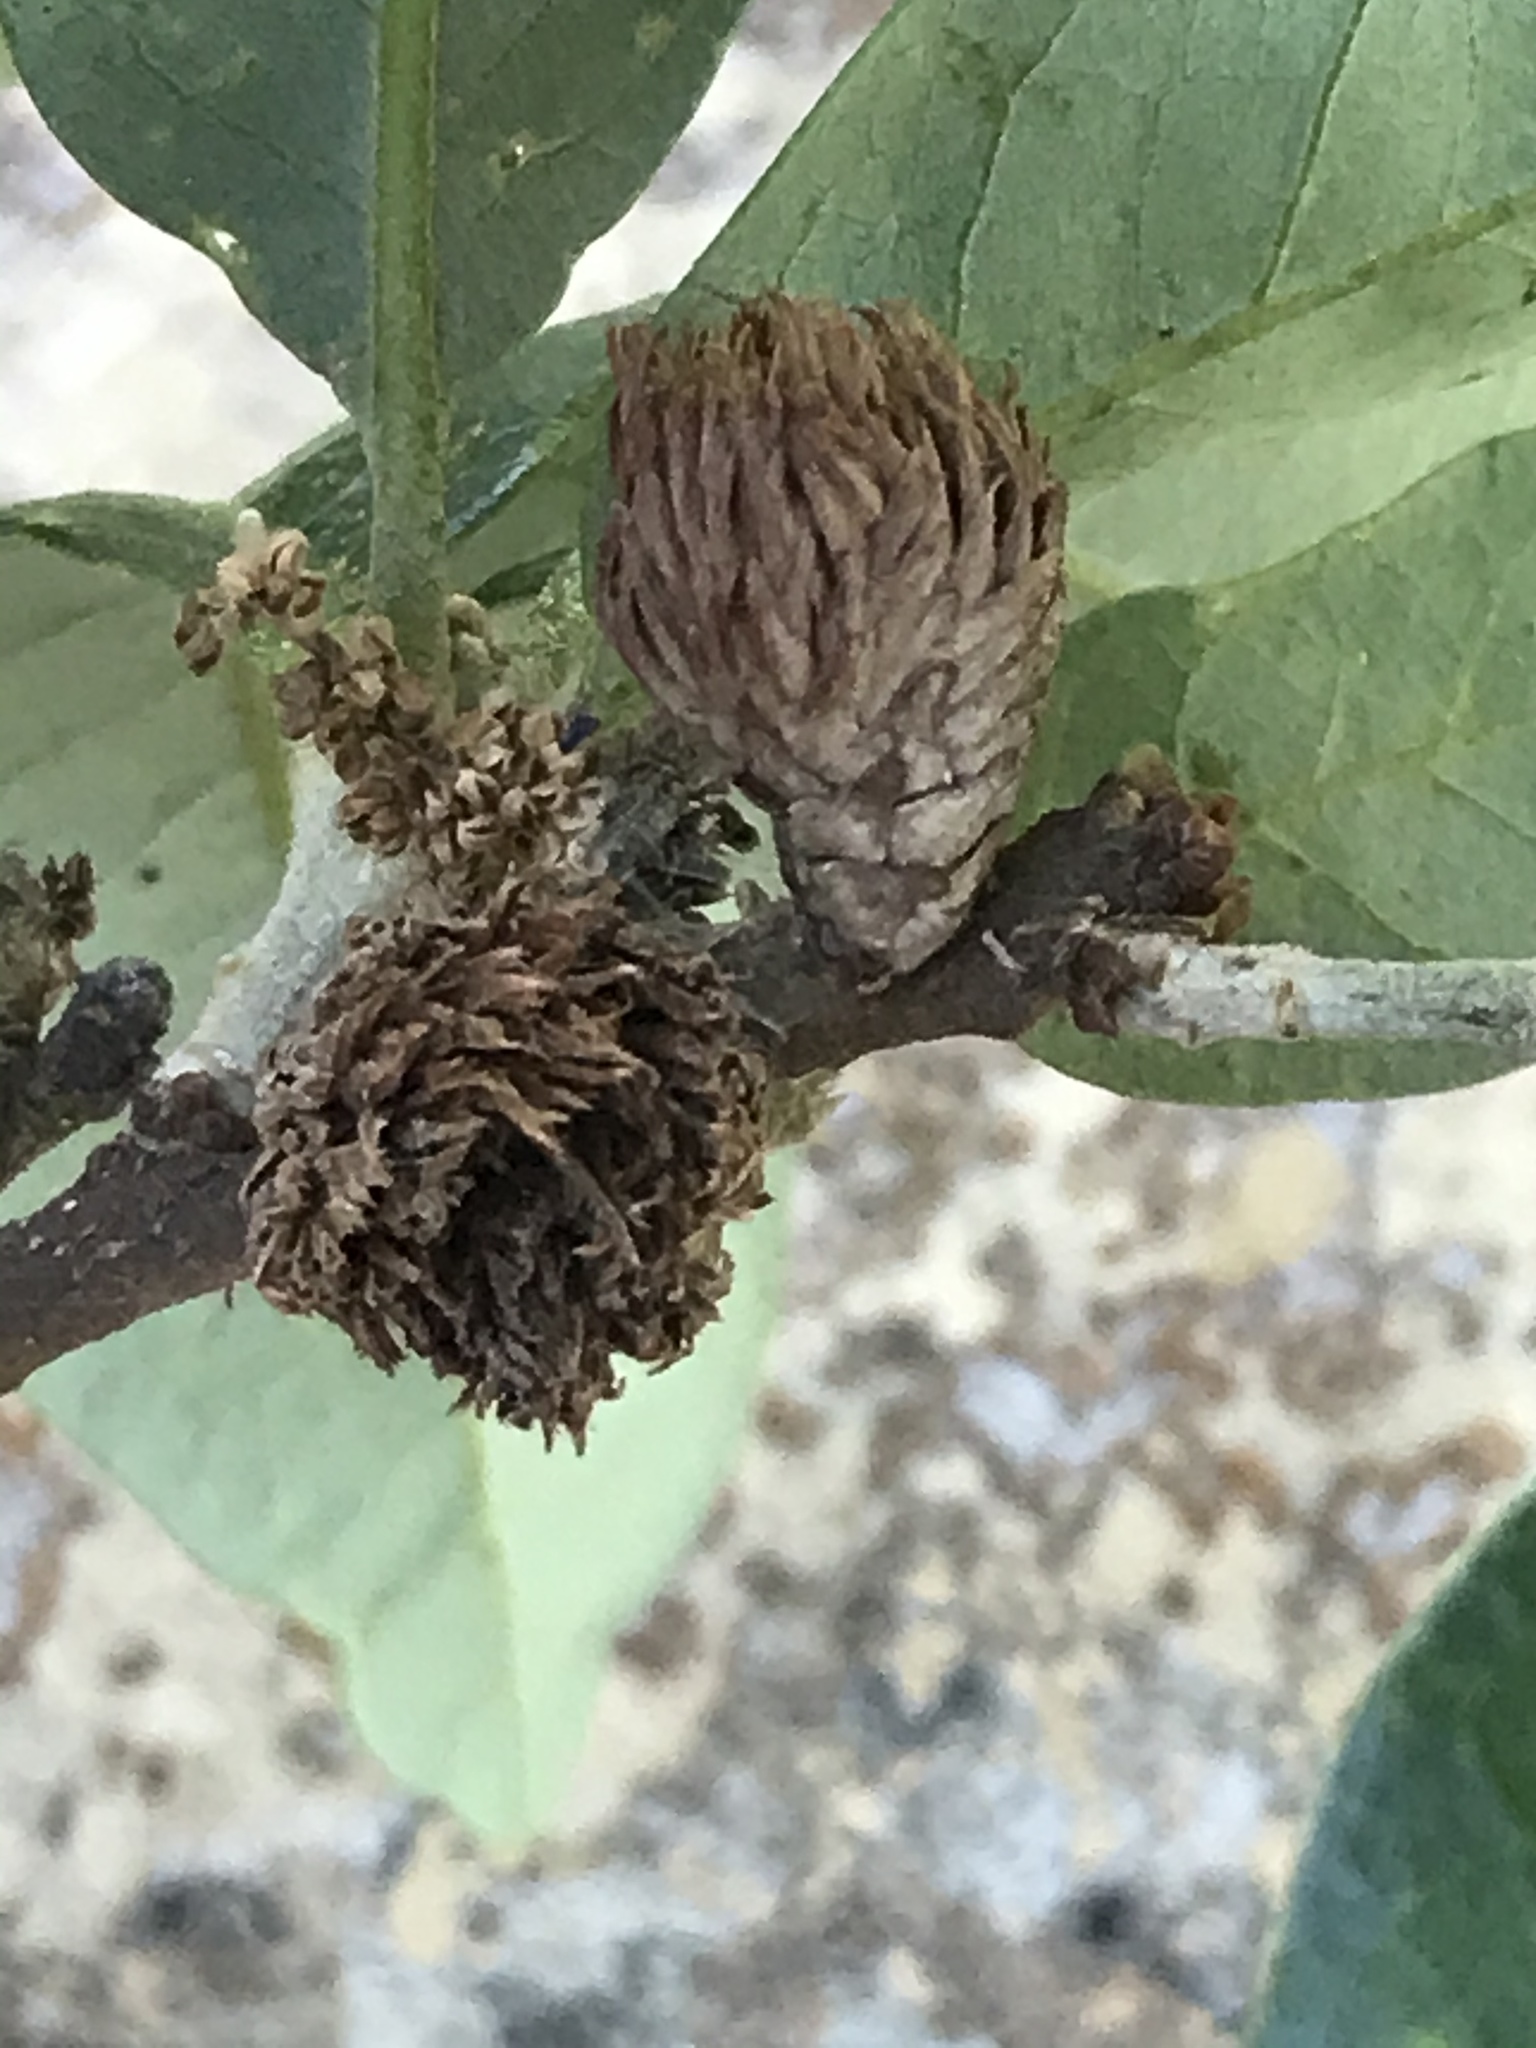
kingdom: Animalia
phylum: Arthropoda
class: Insecta
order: Hymenoptera
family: Cynipidae
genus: Andricus
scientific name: Andricus quercusfoliatus
